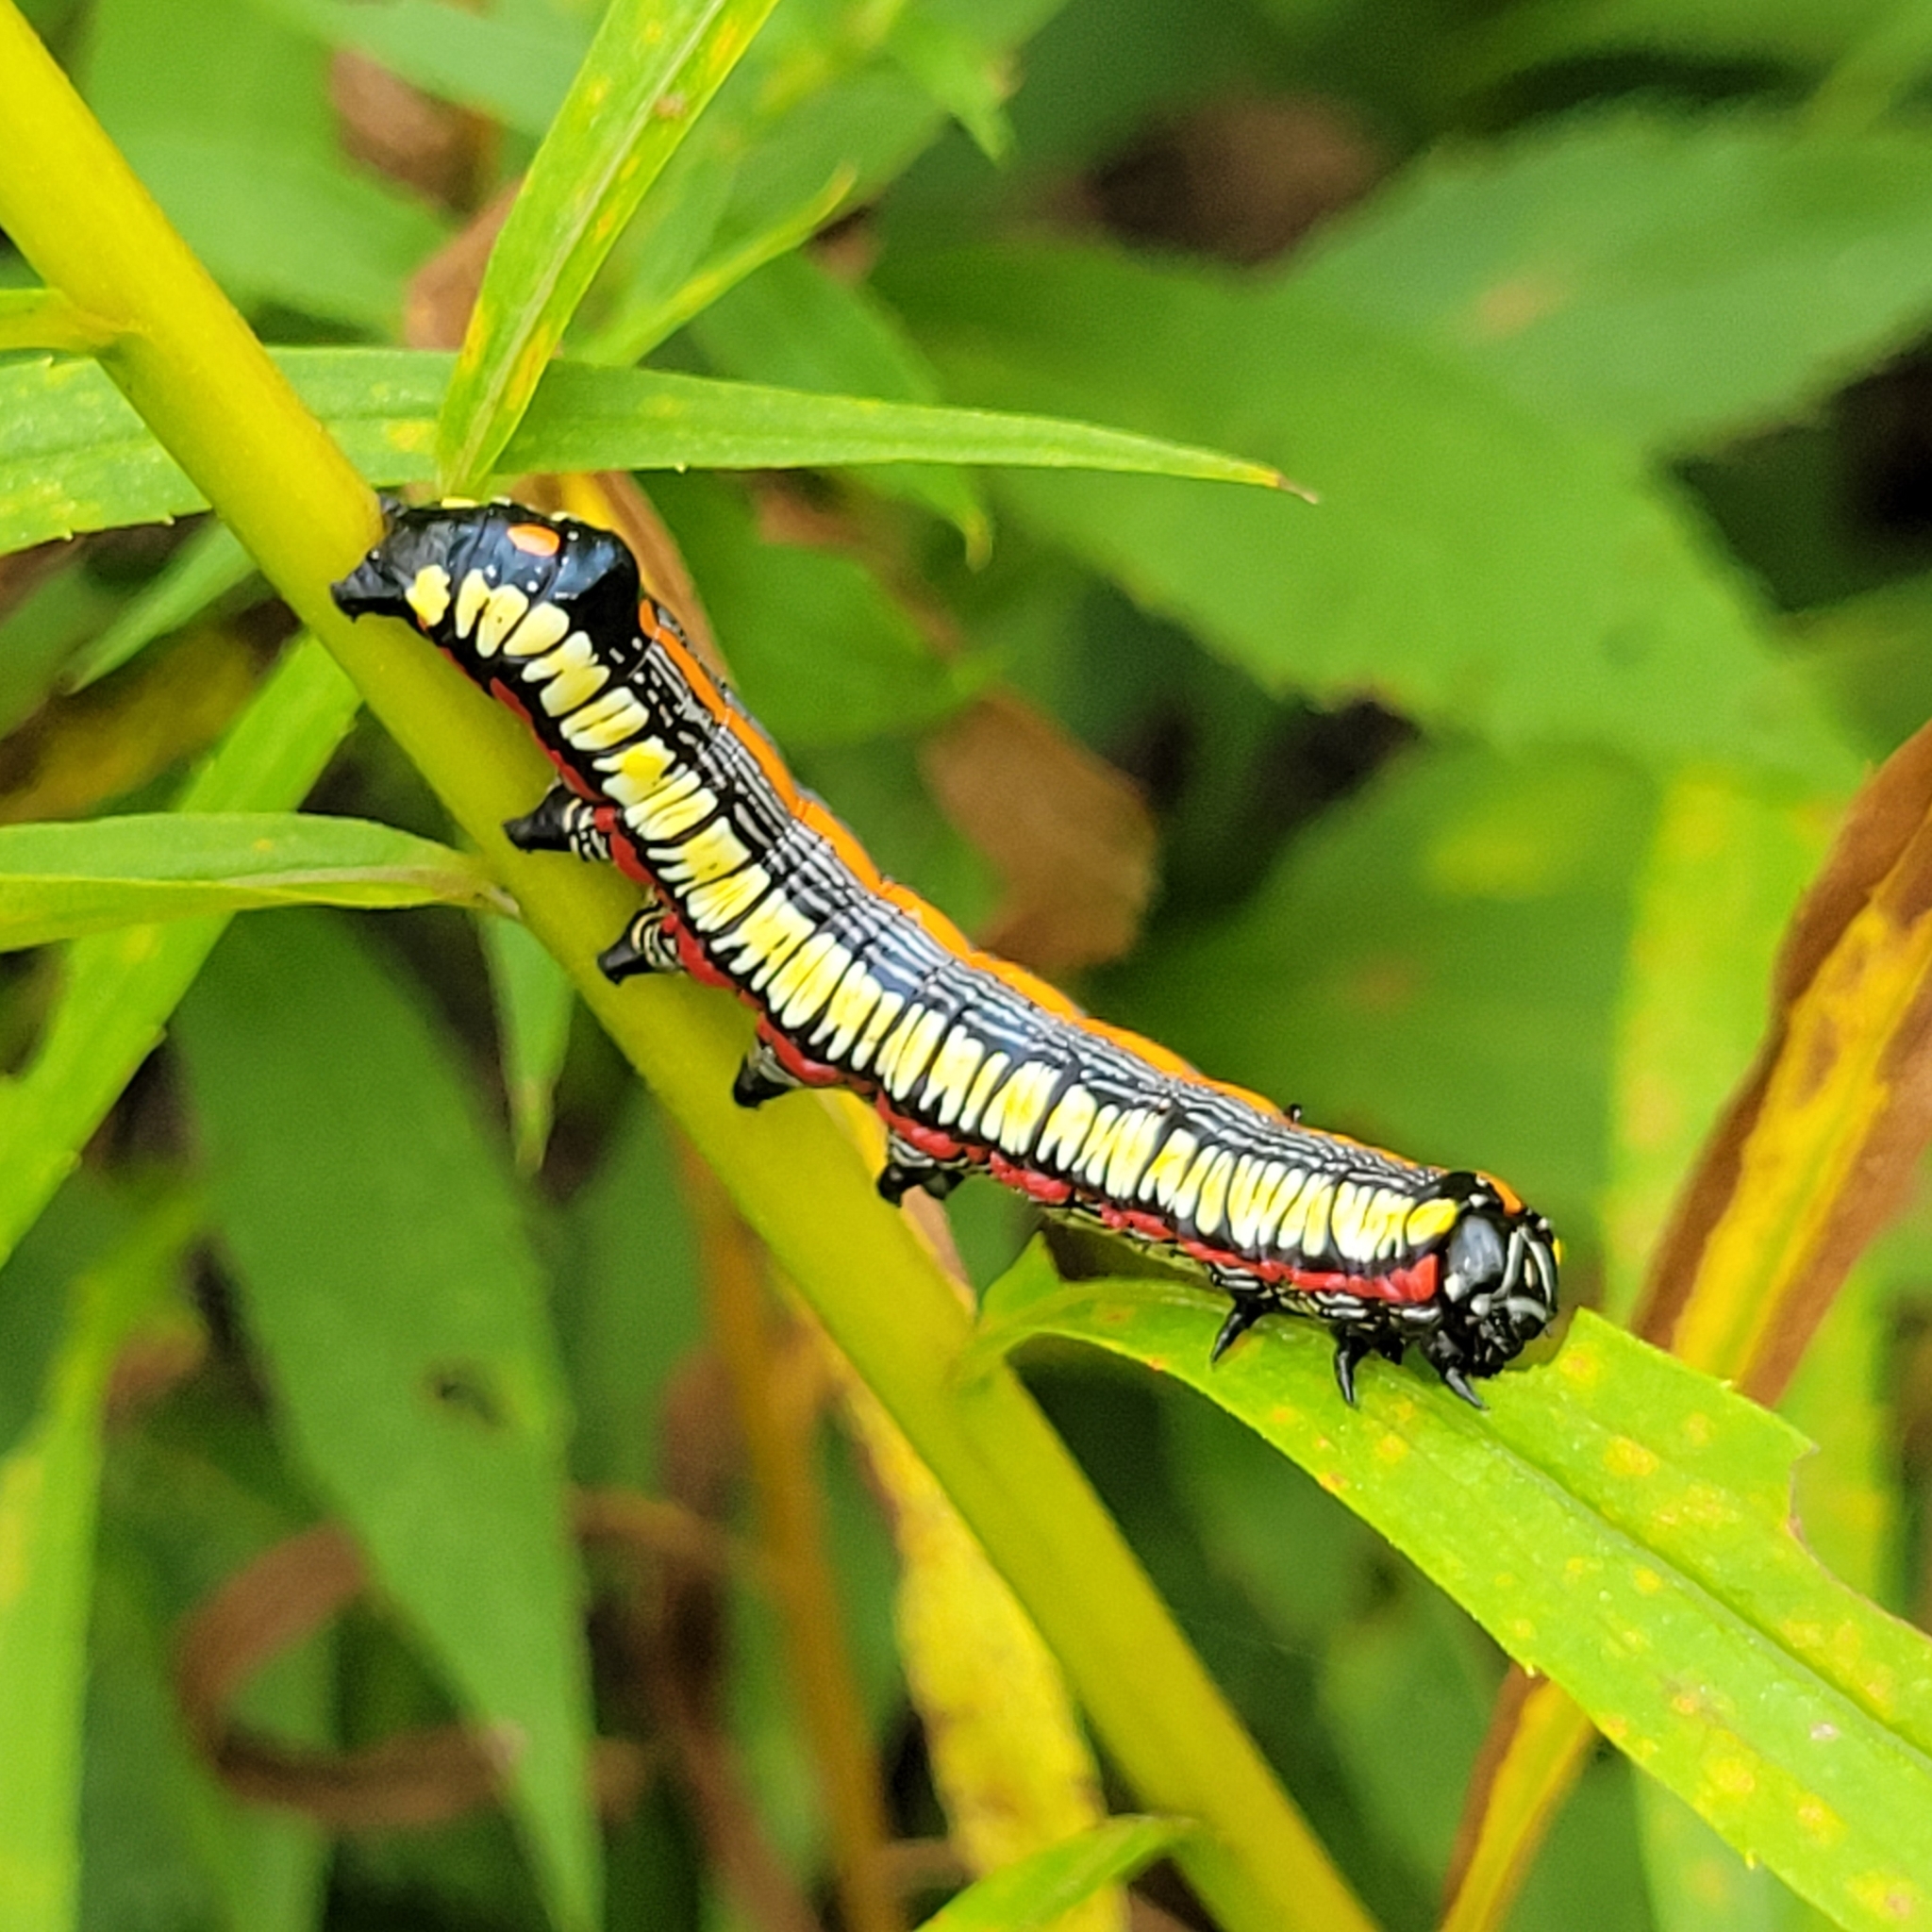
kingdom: Animalia
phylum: Arthropoda
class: Insecta
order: Lepidoptera
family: Noctuidae
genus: Cucullia
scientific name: Cucullia convexipennis
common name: Brown-hooded owlet
